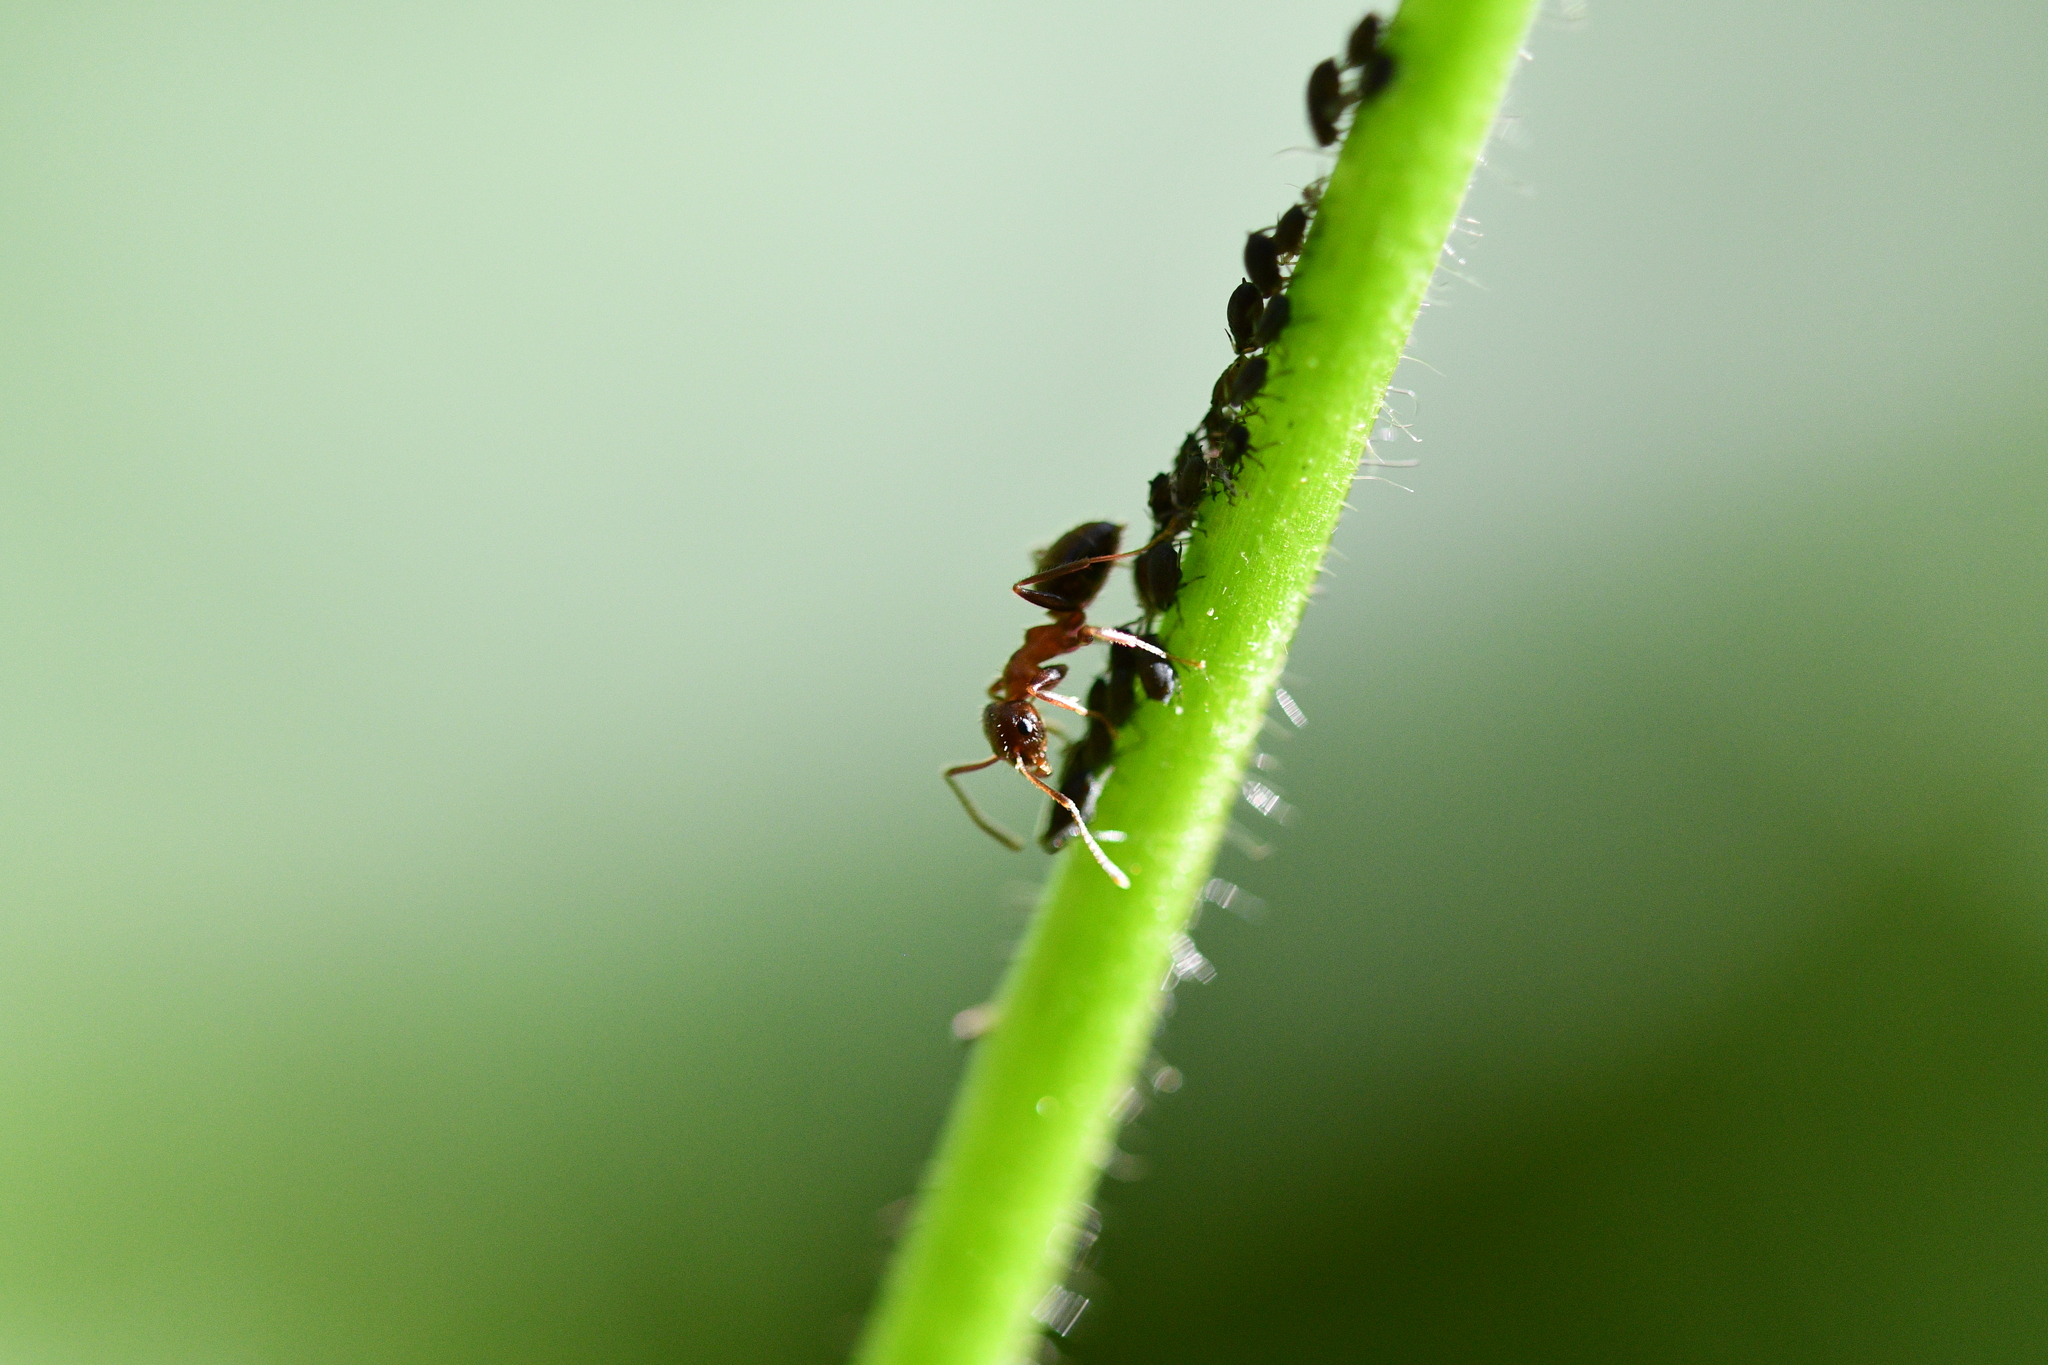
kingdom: Animalia
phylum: Arthropoda
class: Insecta
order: Hymenoptera
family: Formicidae
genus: Lasius
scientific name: Lasius emarginatus
